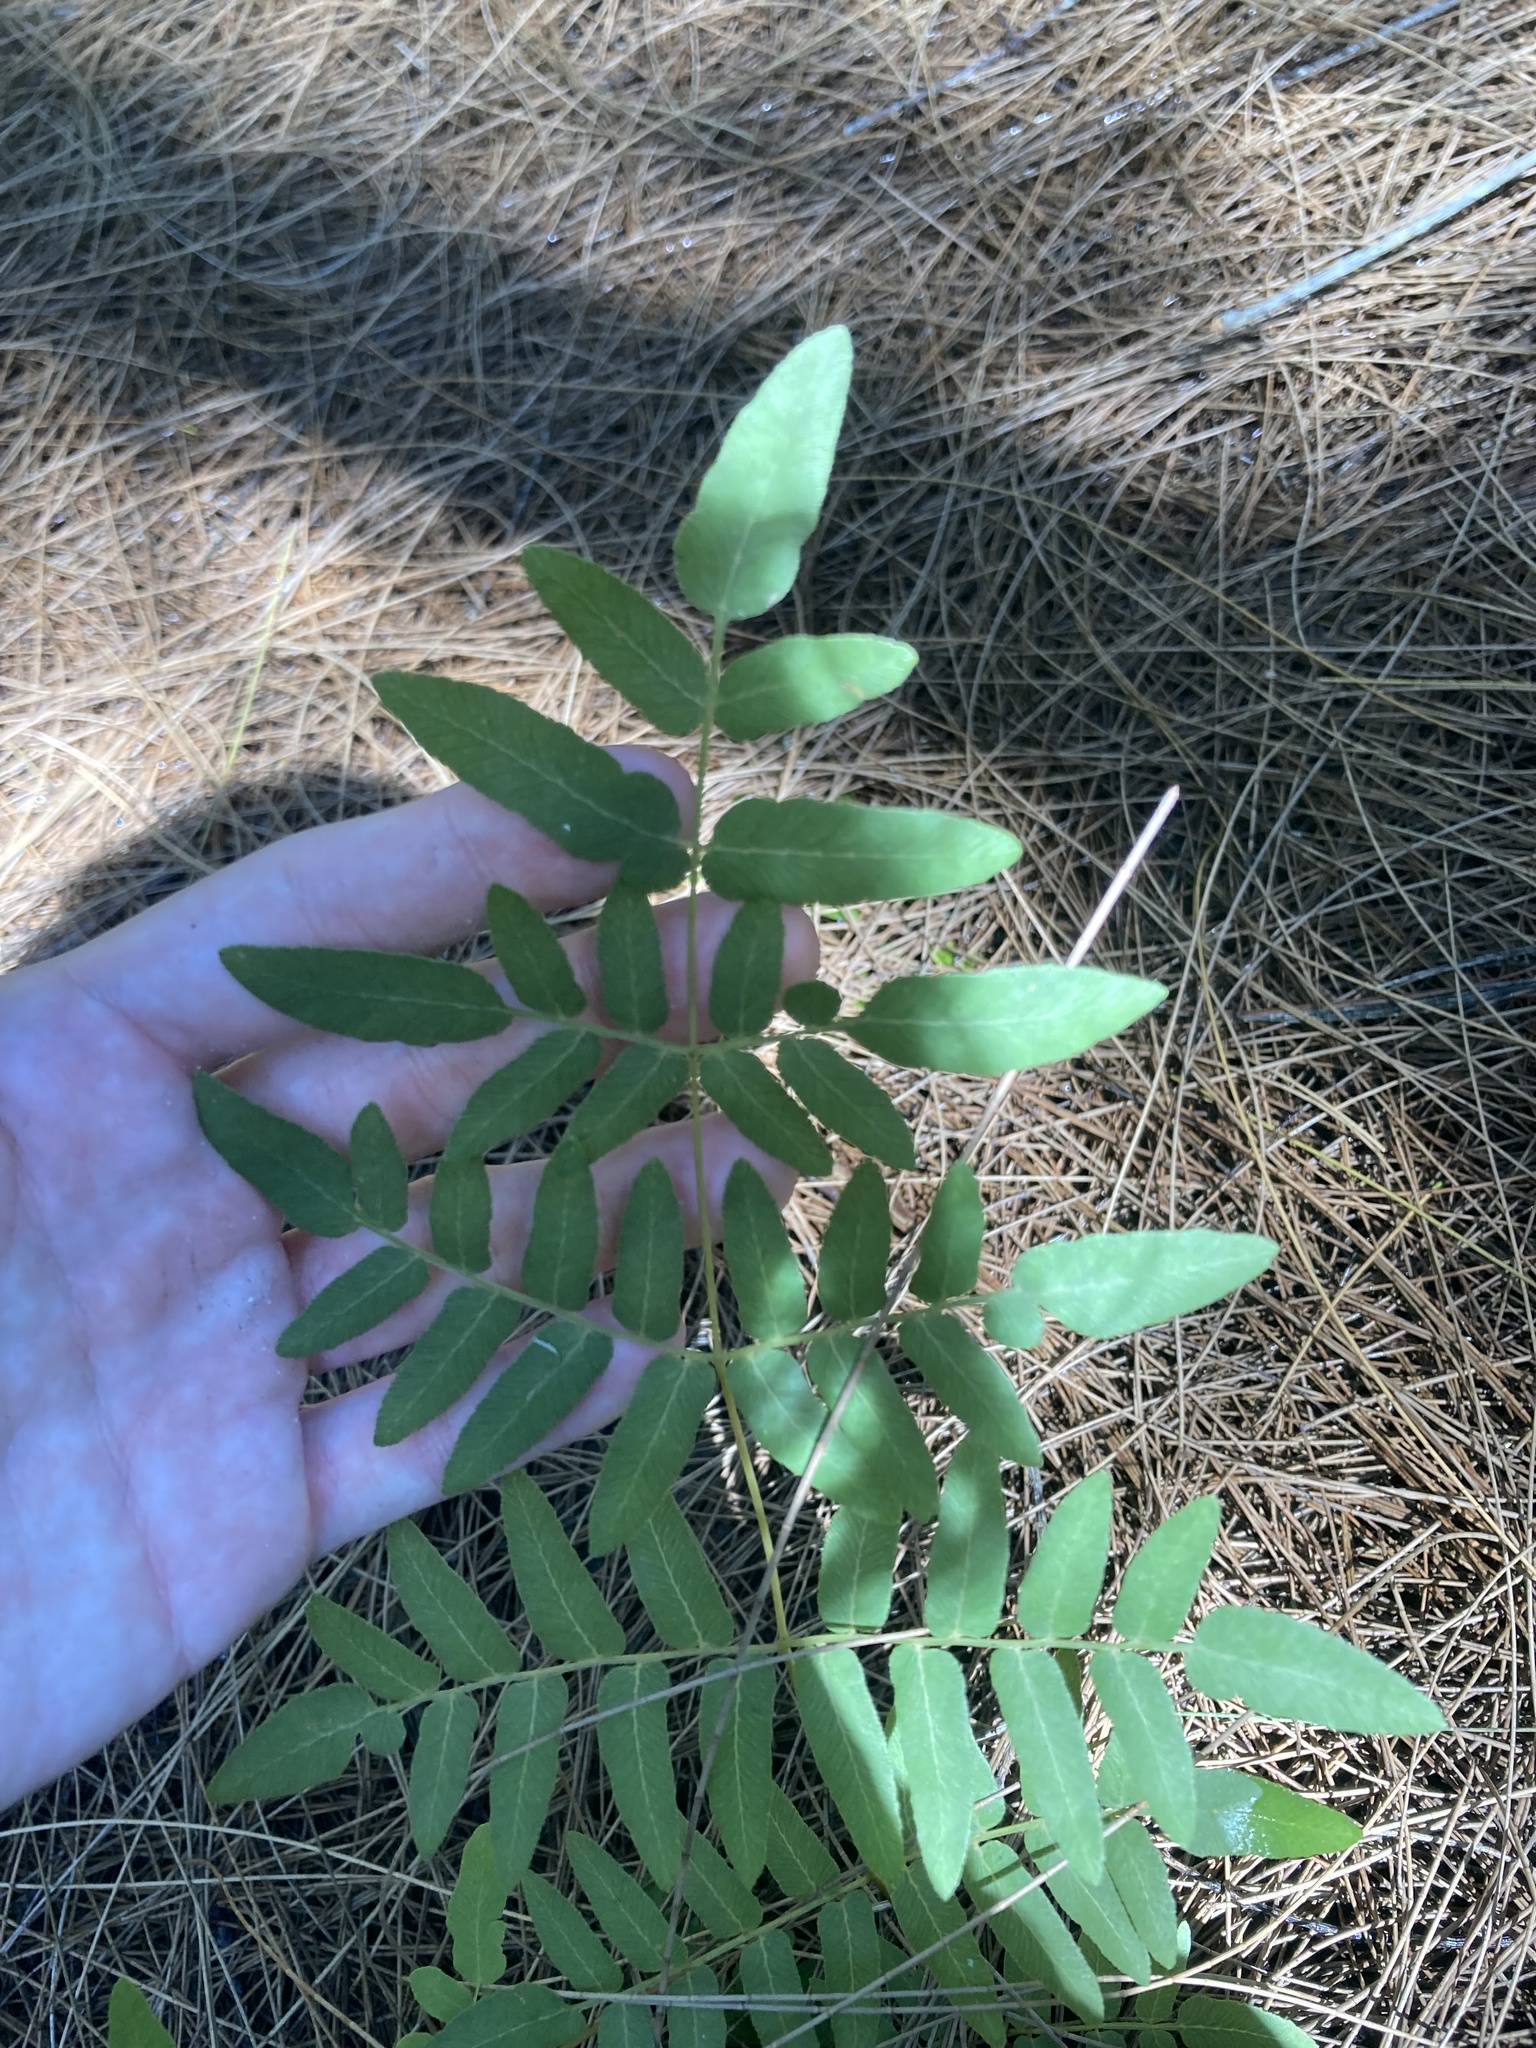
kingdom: Plantae
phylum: Tracheophyta
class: Polypodiopsida
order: Osmundales
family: Osmundaceae
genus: Osmunda
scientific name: Osmunda spectabilis
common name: American royal fern
